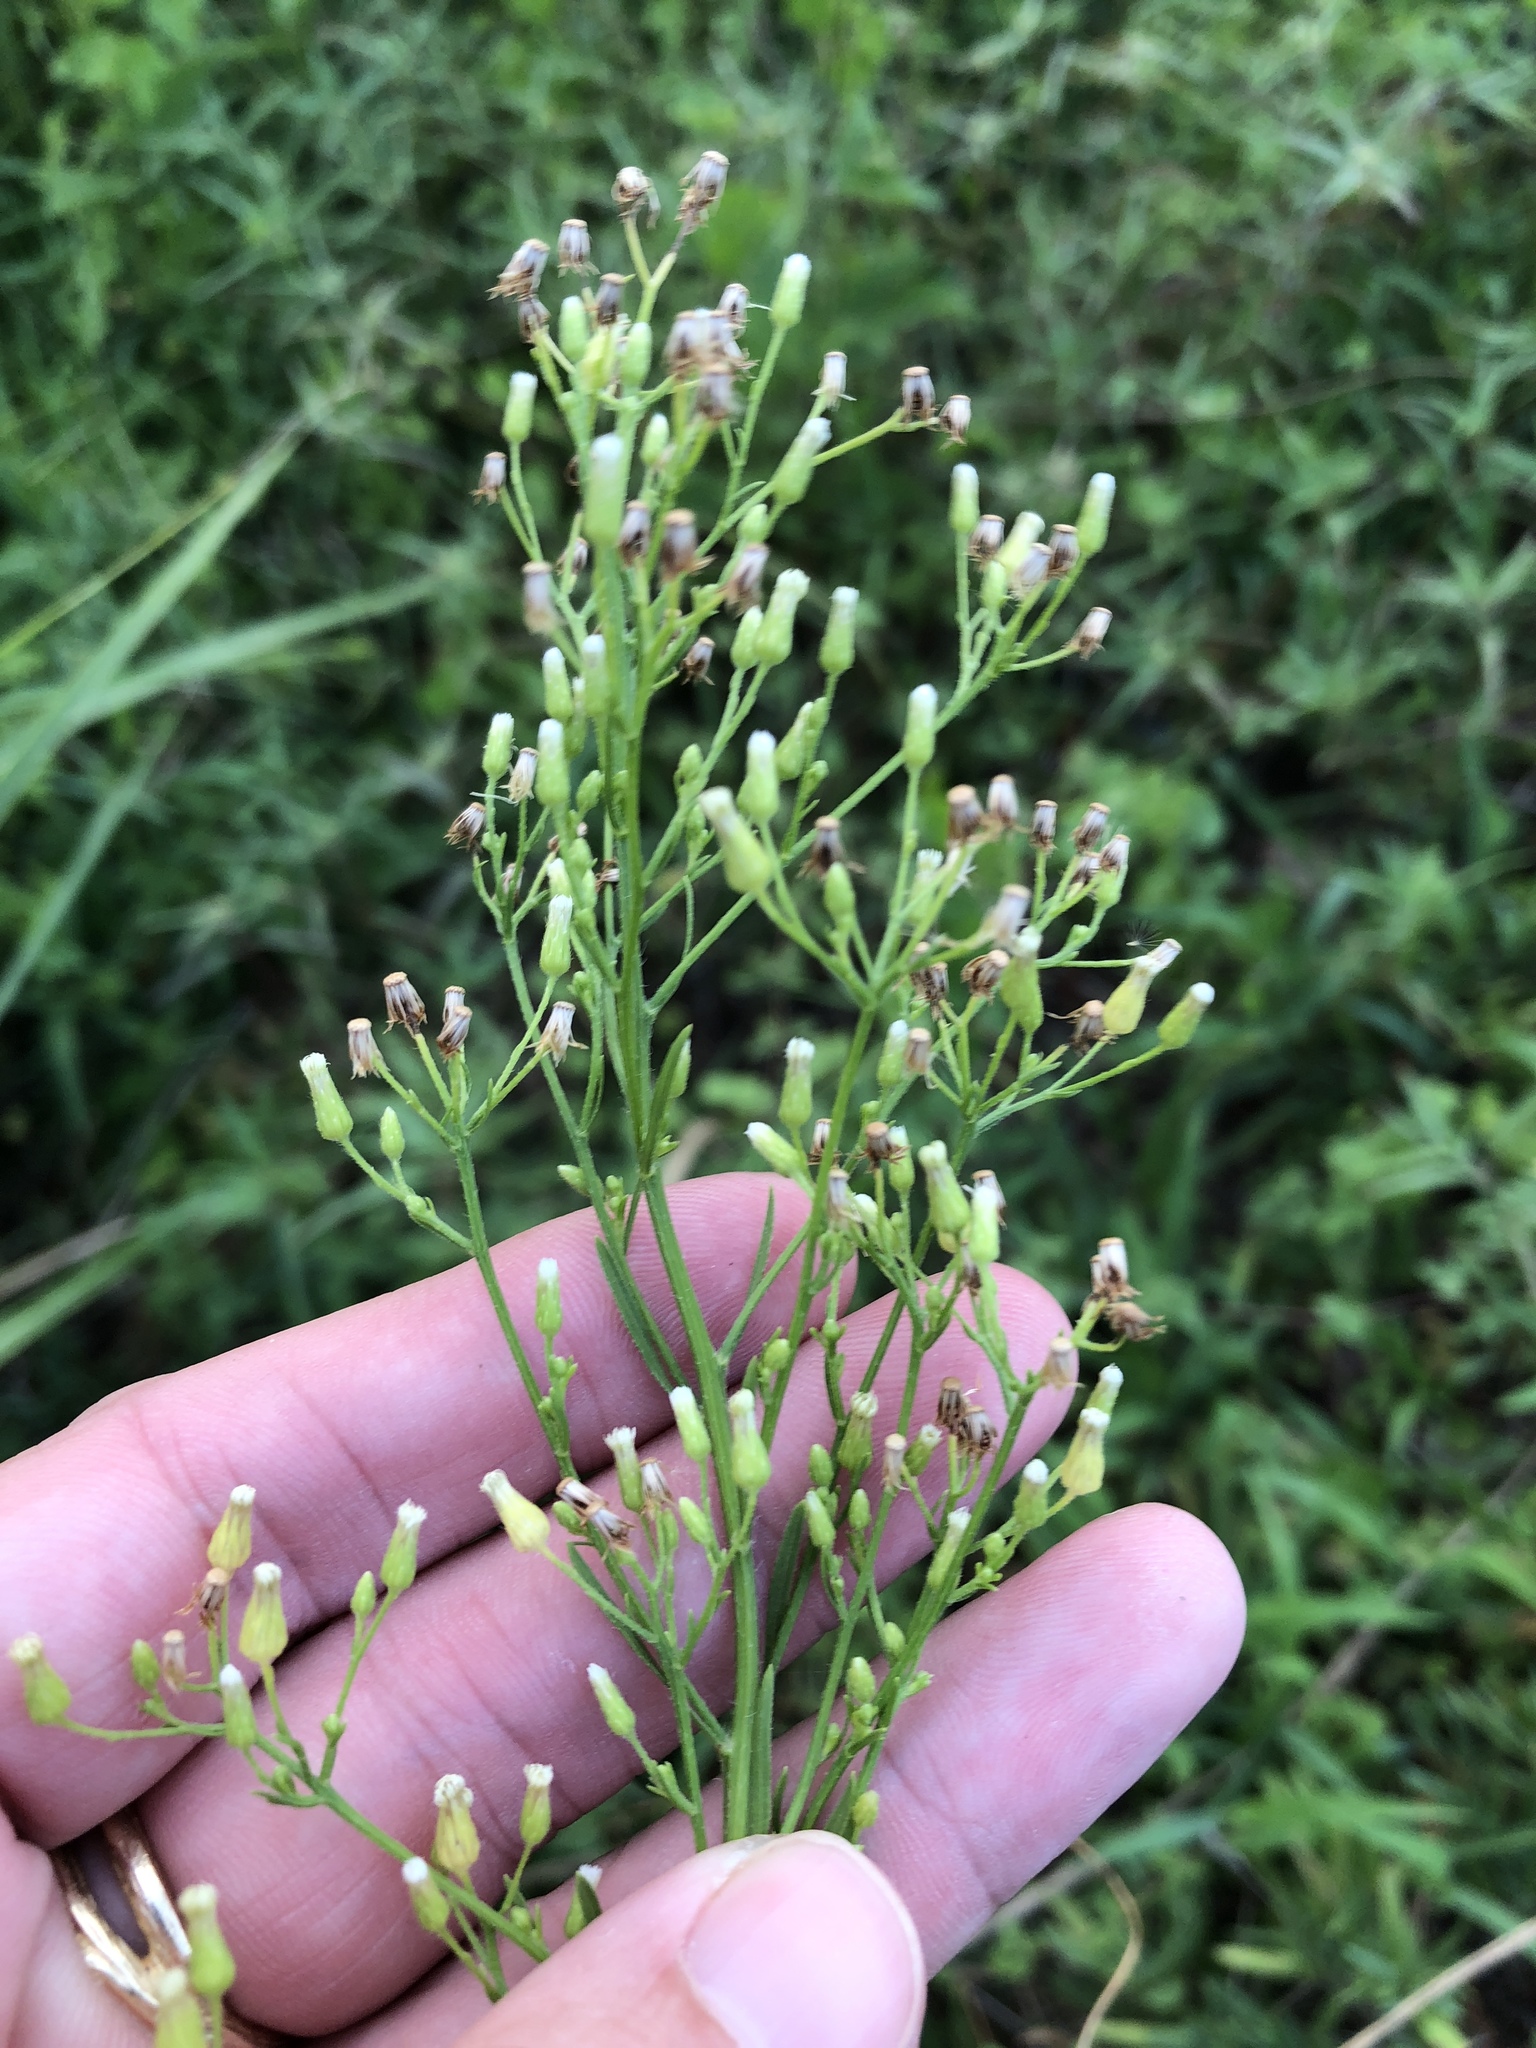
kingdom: Plantae
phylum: Tracheophyta
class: Magnoliopsida
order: Asterales
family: Asteraceae
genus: Erigeron
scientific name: Erigeron canadensis
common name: Canadian fleabane
